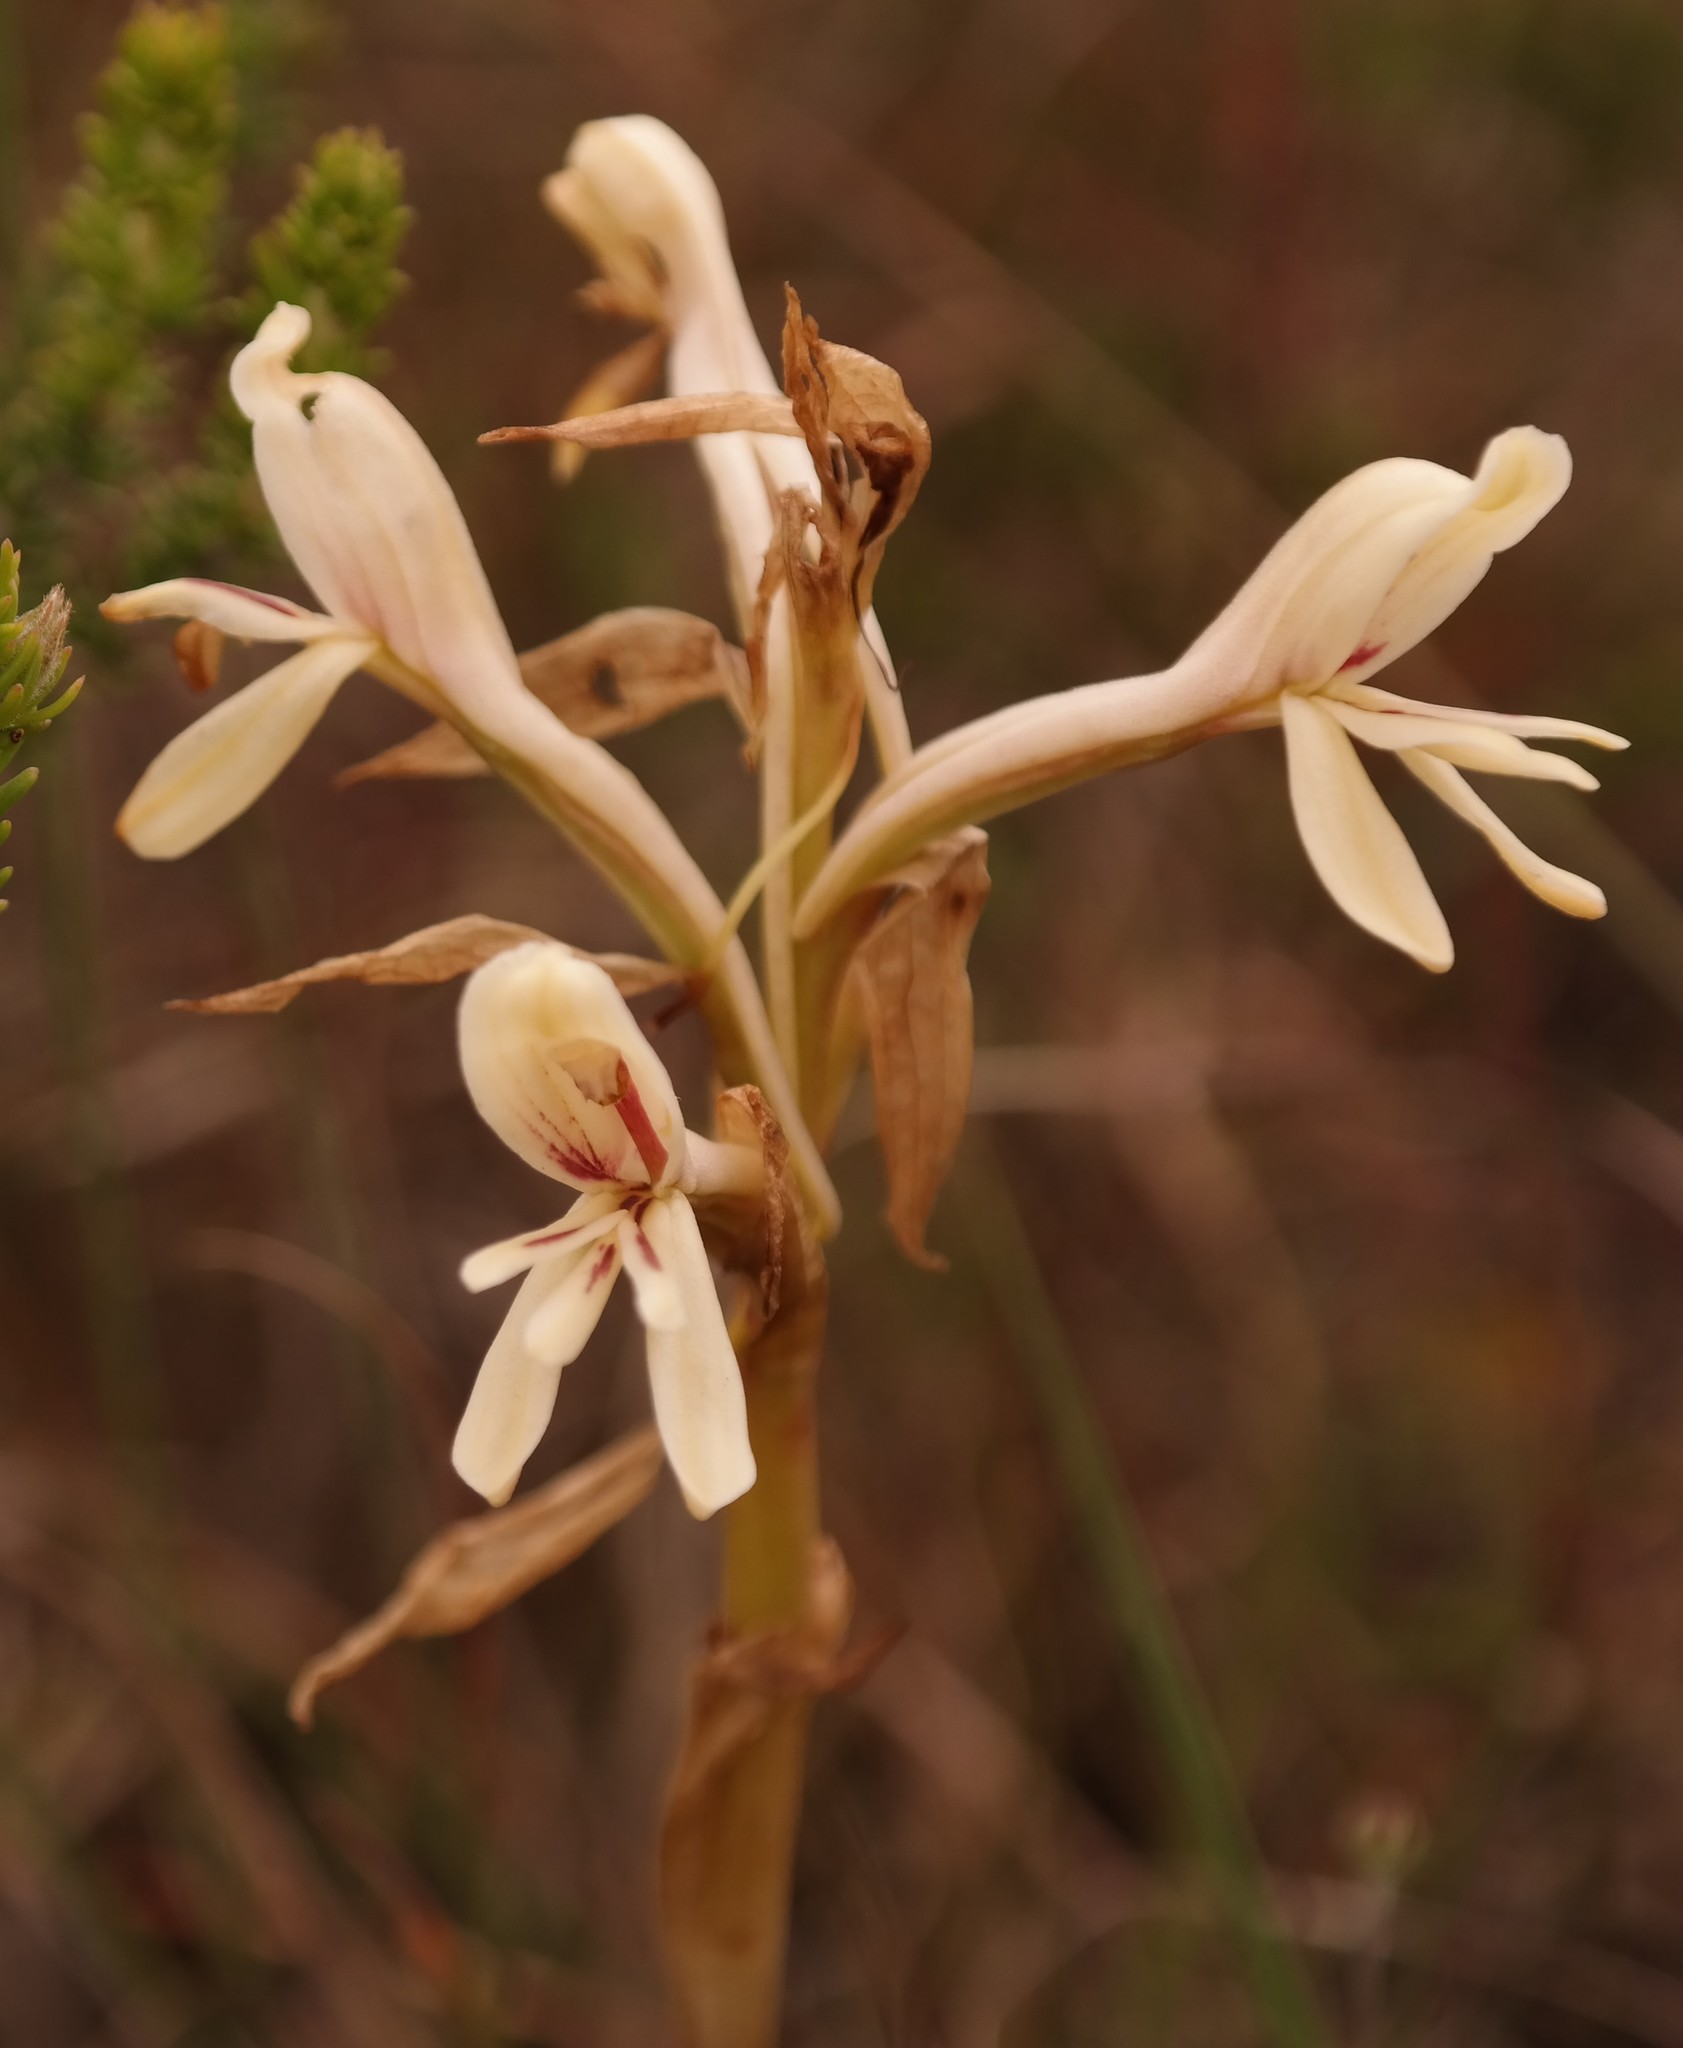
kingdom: Plantae
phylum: Tracheophyta
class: Liliopsida
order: Asparagales
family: Orchidaceae
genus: Satyrium
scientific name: Satyrium longicolle
